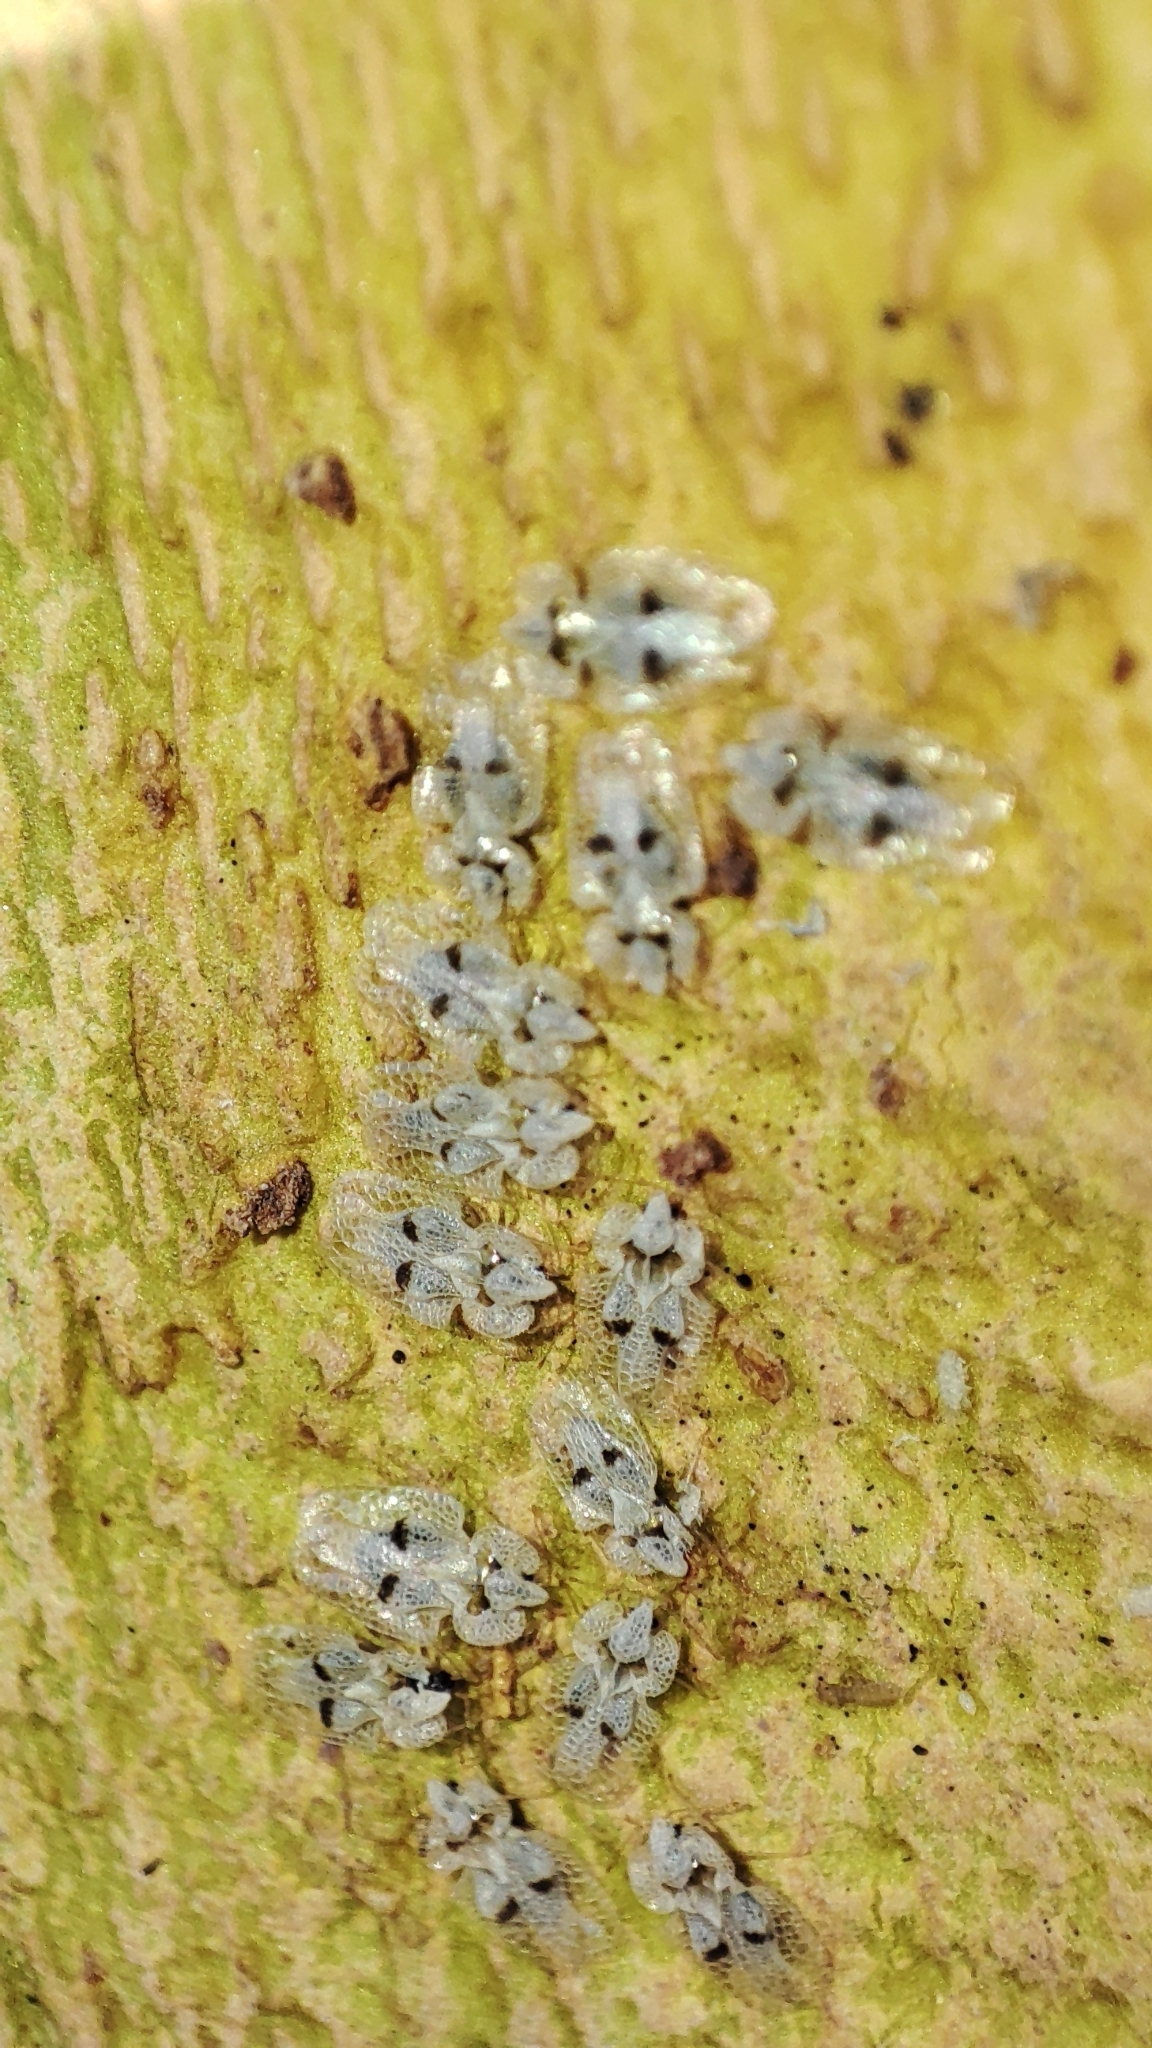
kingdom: Animalia
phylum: Arthropoda
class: Insecta
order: Hemiptera
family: Tingidae
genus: Corythucha
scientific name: Corythucha ciliata
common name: Sycamore lace bug
